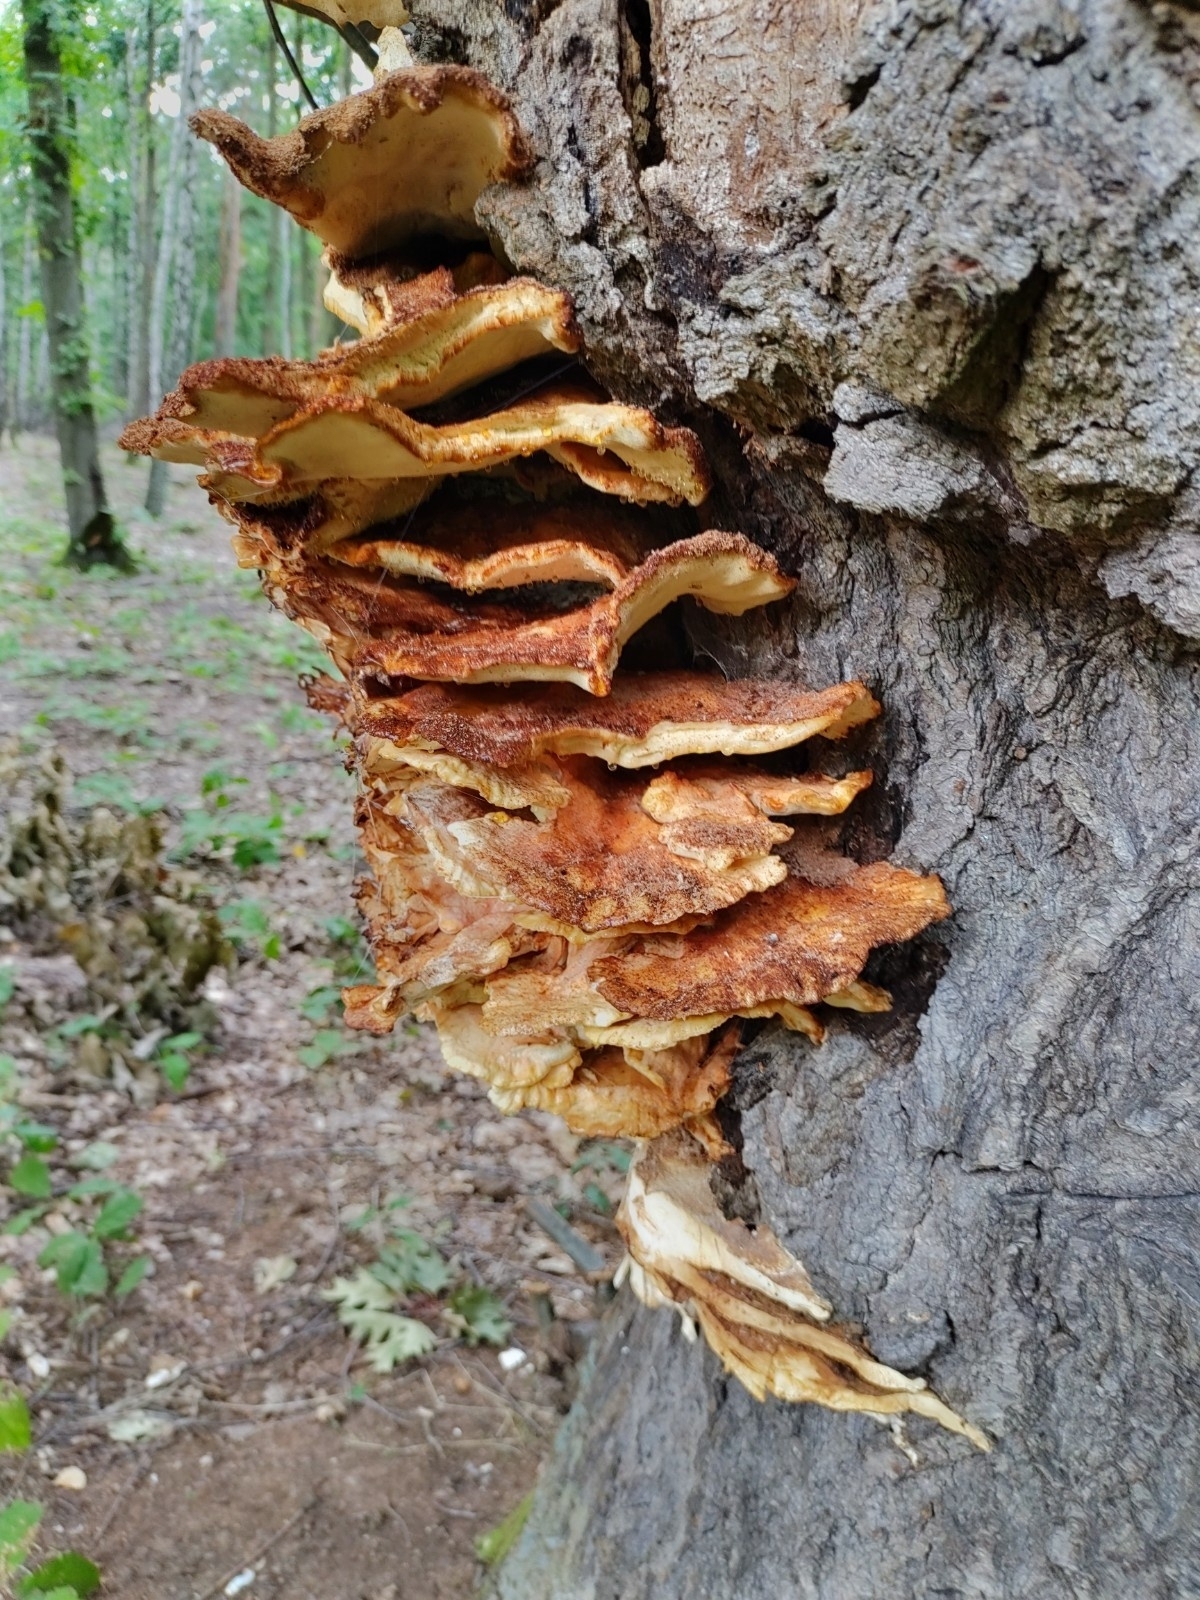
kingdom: Fungi
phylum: Basidiomycota
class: Agaricomycetes
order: Polyporales
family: Laetiporaceae
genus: Laetiporus
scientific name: Laetiporus sulphureus
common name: Chicken of the woods
